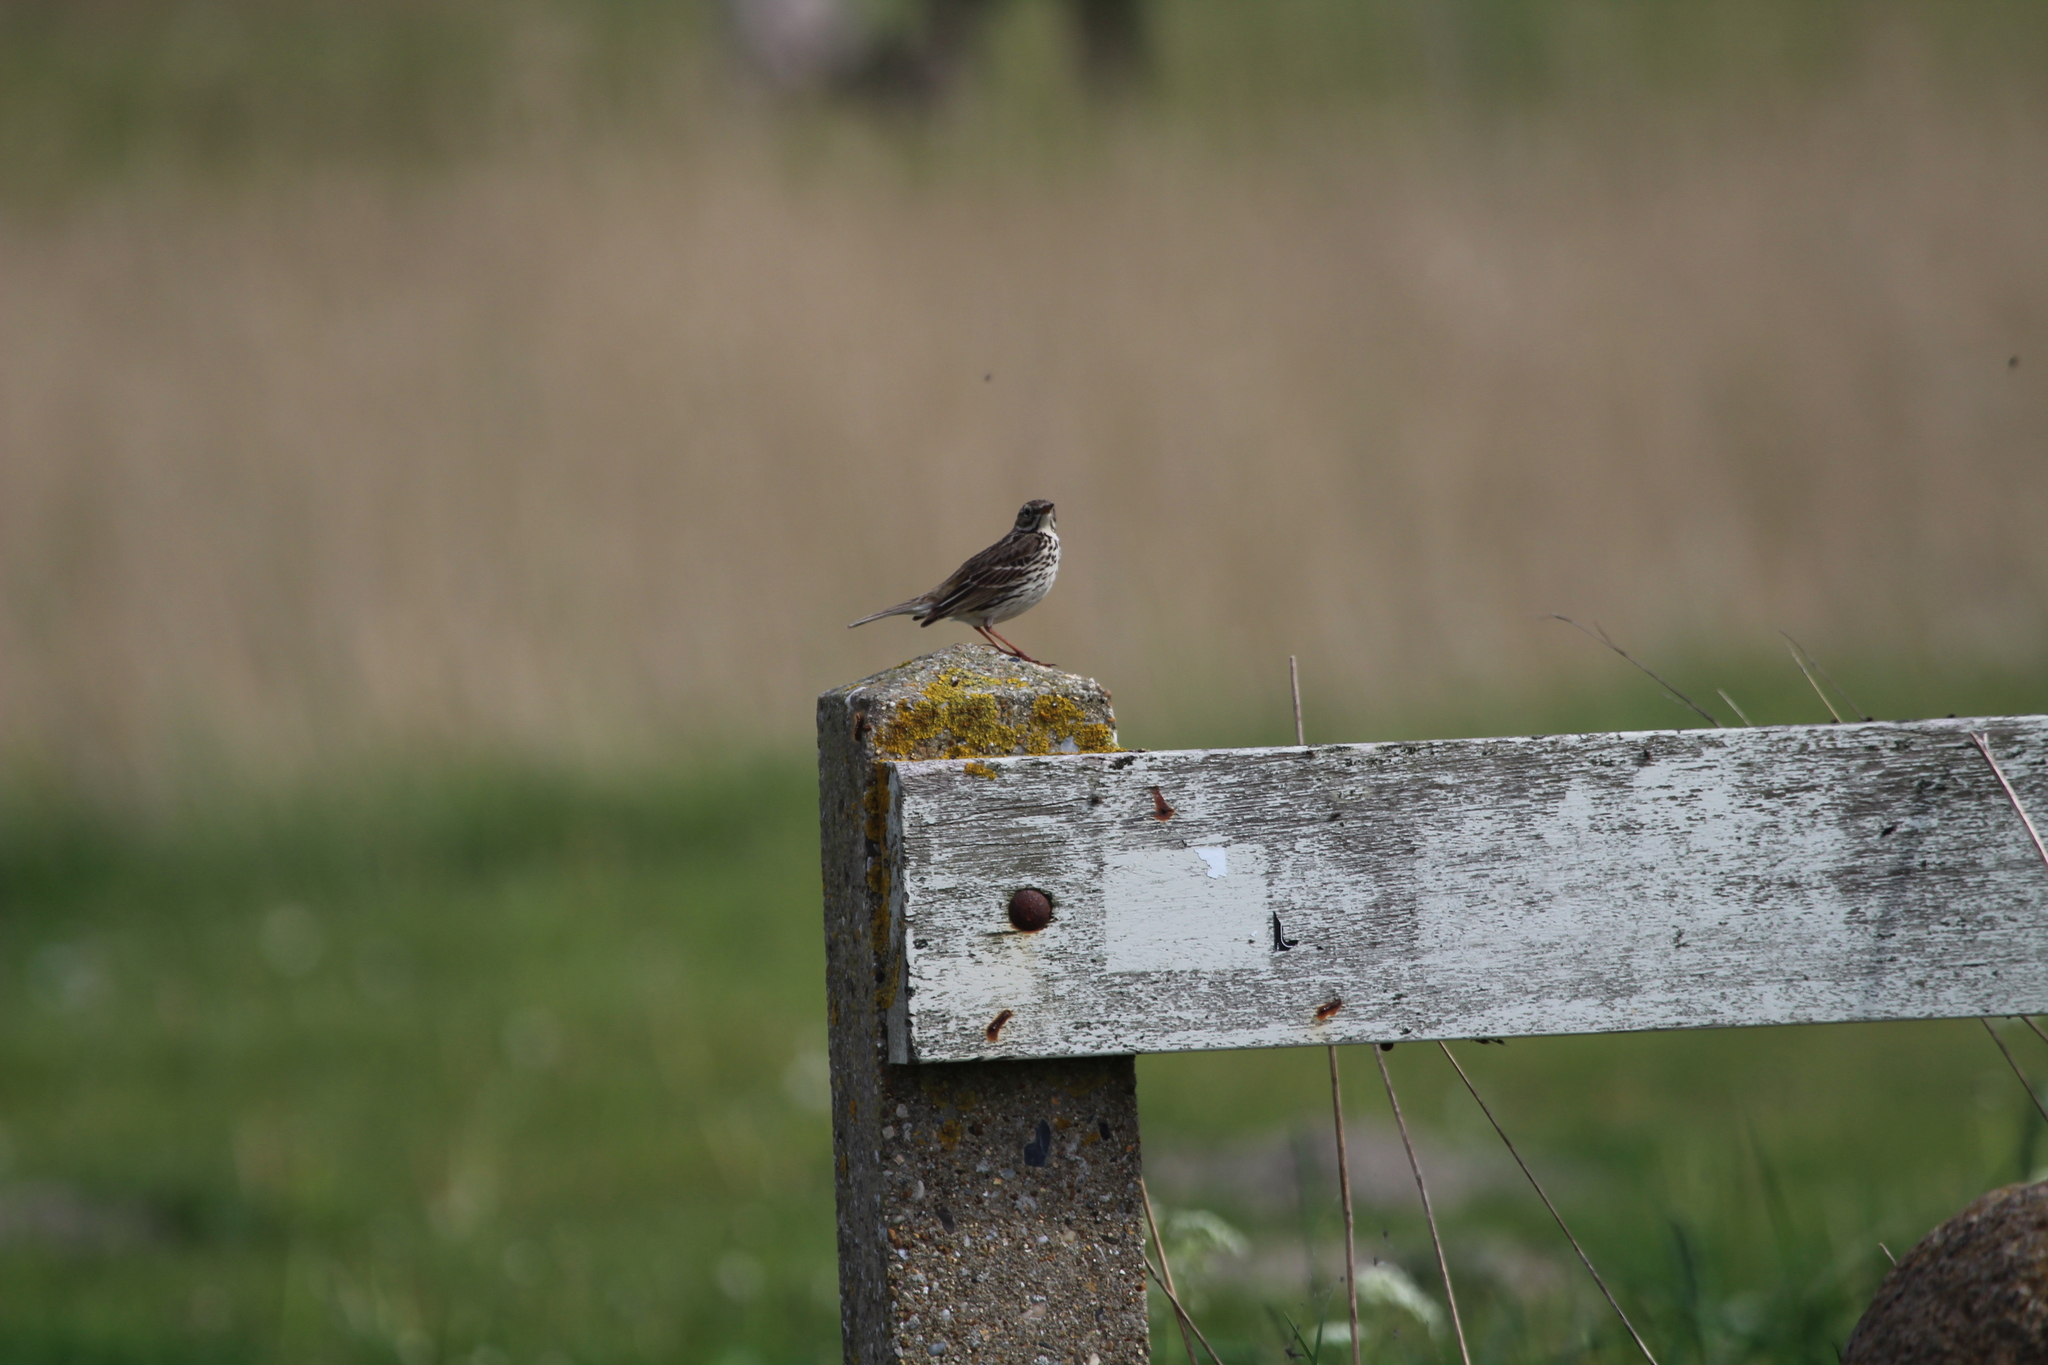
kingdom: Animalia
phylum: Chordata
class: Aves
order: Passeriformes
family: Motacillidae
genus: Anthus
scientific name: Anthus pratensis
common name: Meadow pipit
